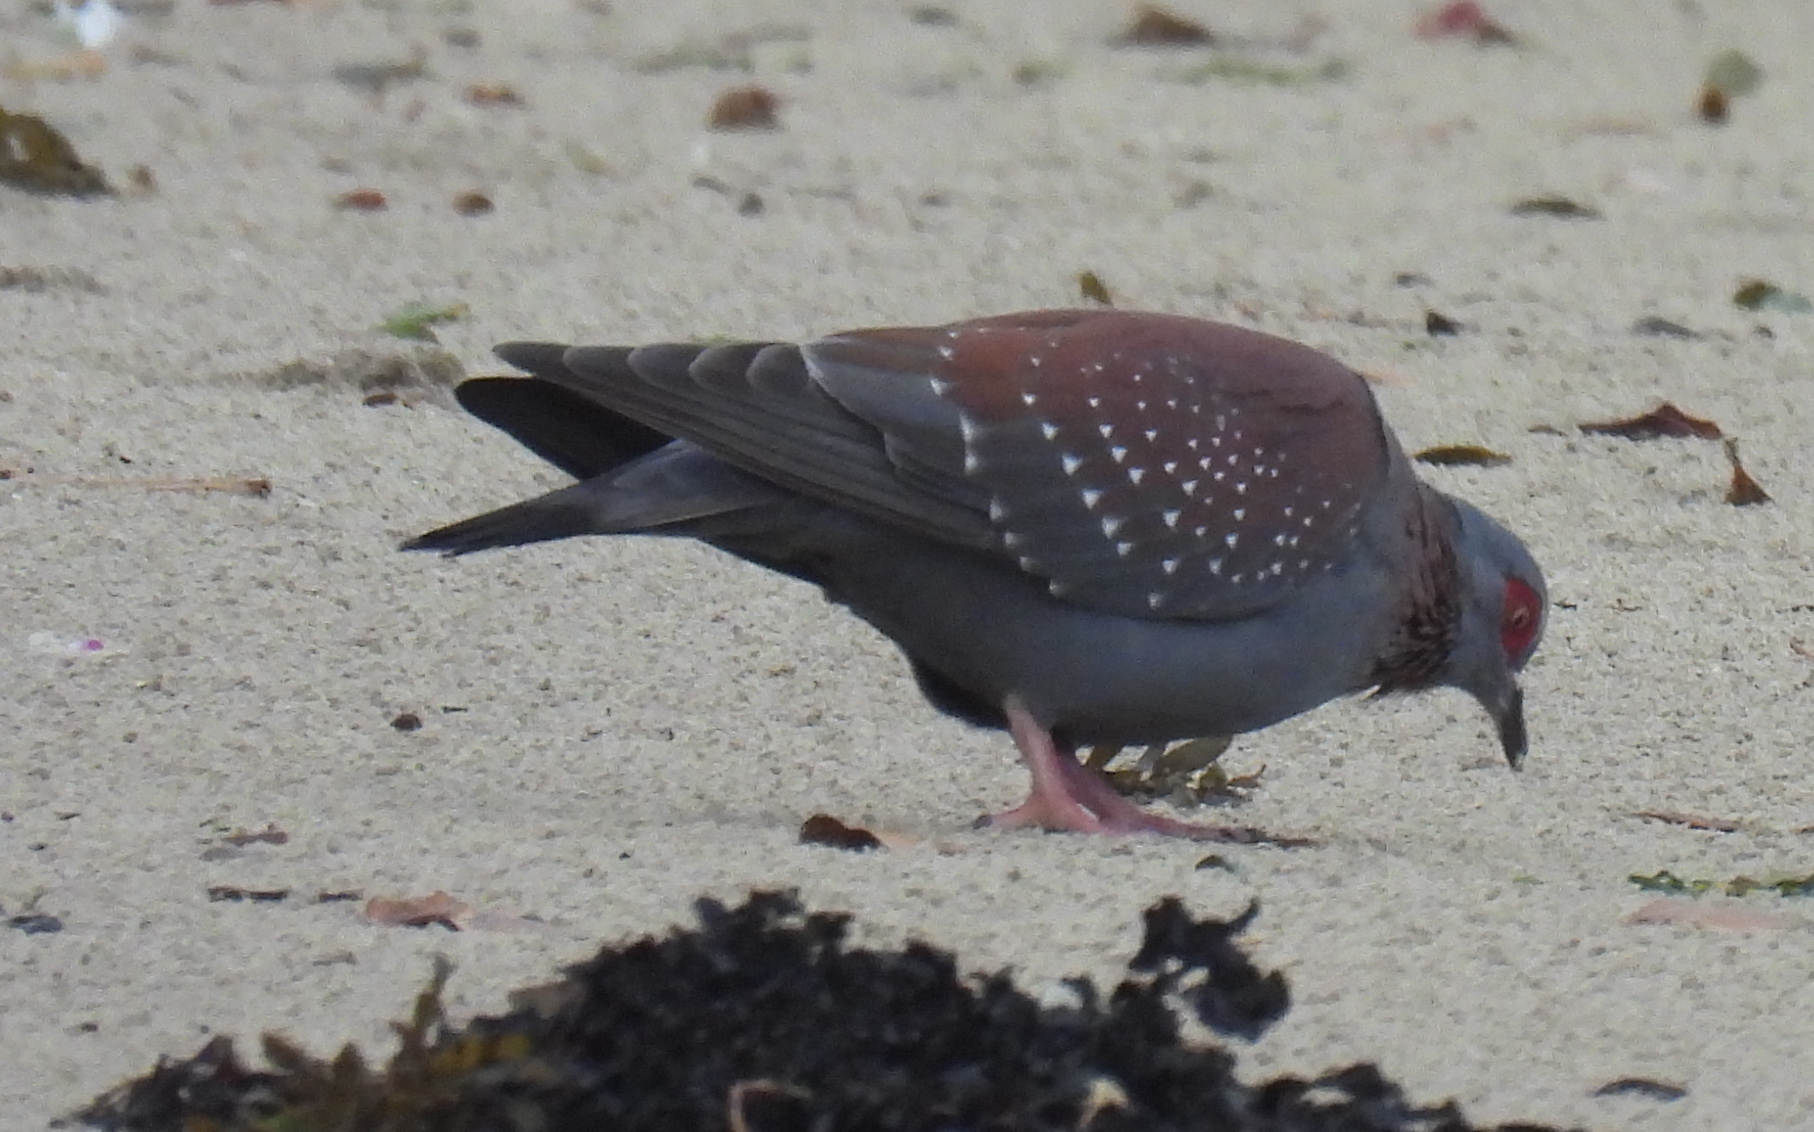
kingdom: Animalia
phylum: Chordata
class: Aves
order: Columbiformes
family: Columbidae
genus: Columba
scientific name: Columba guinea
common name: Speckled pigeon
